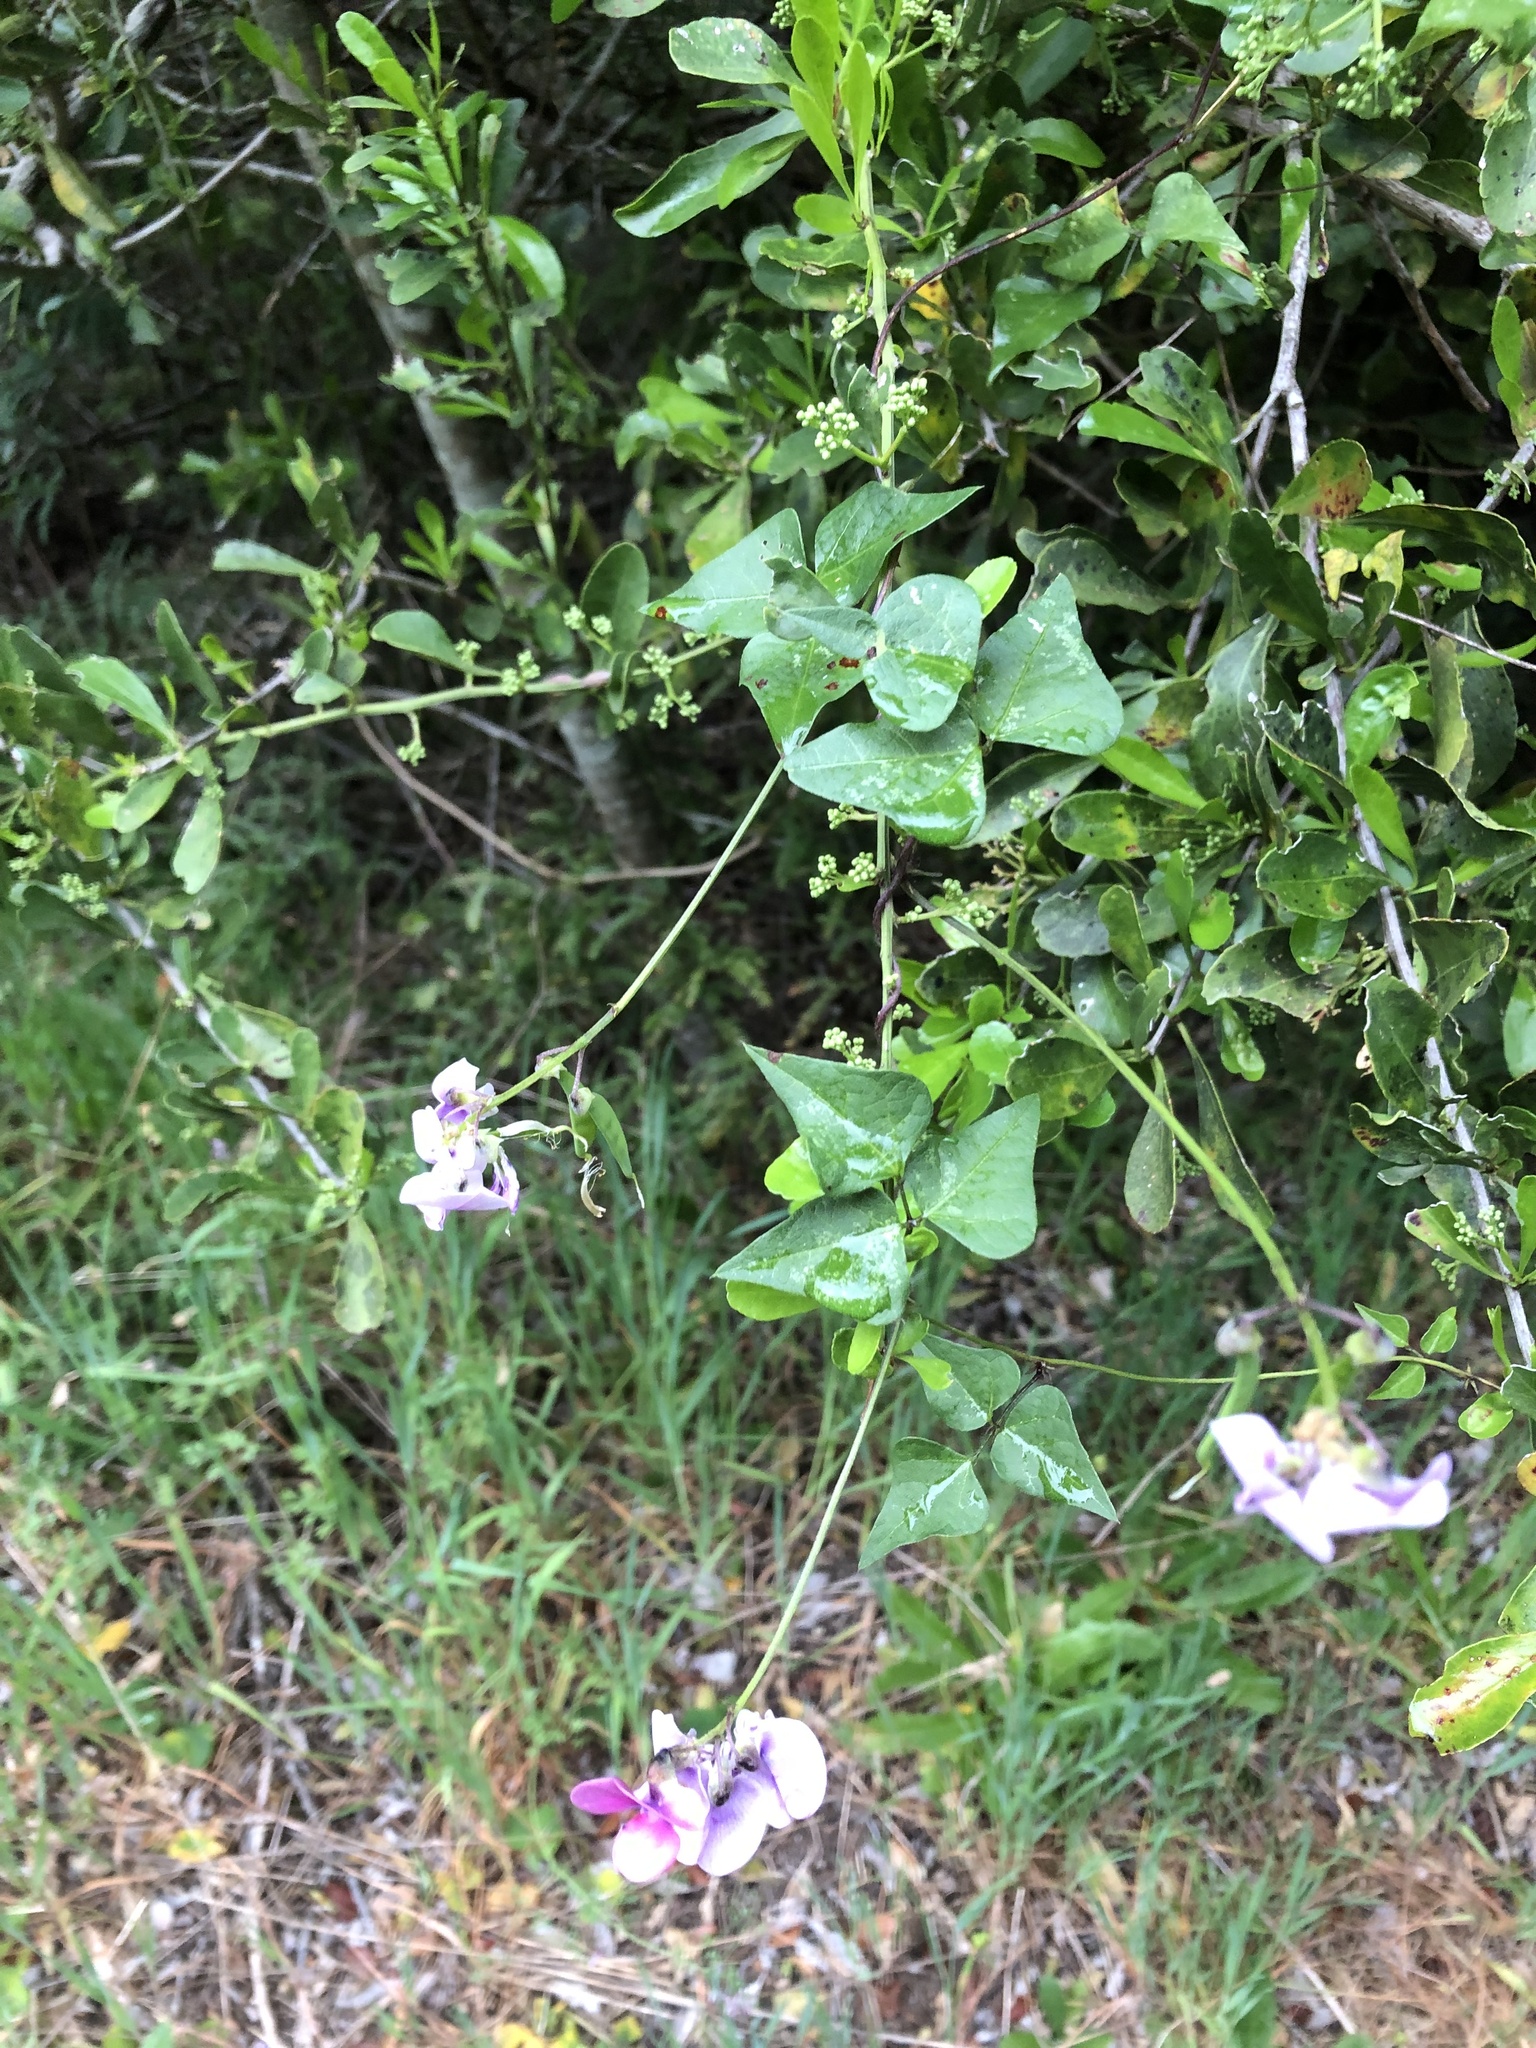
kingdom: Plantae
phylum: Tracheophyta
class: Magnoliopsida
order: Fabales
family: Fabaceae
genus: Dipogon
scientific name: Dipogon lignosus
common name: Okie bean
